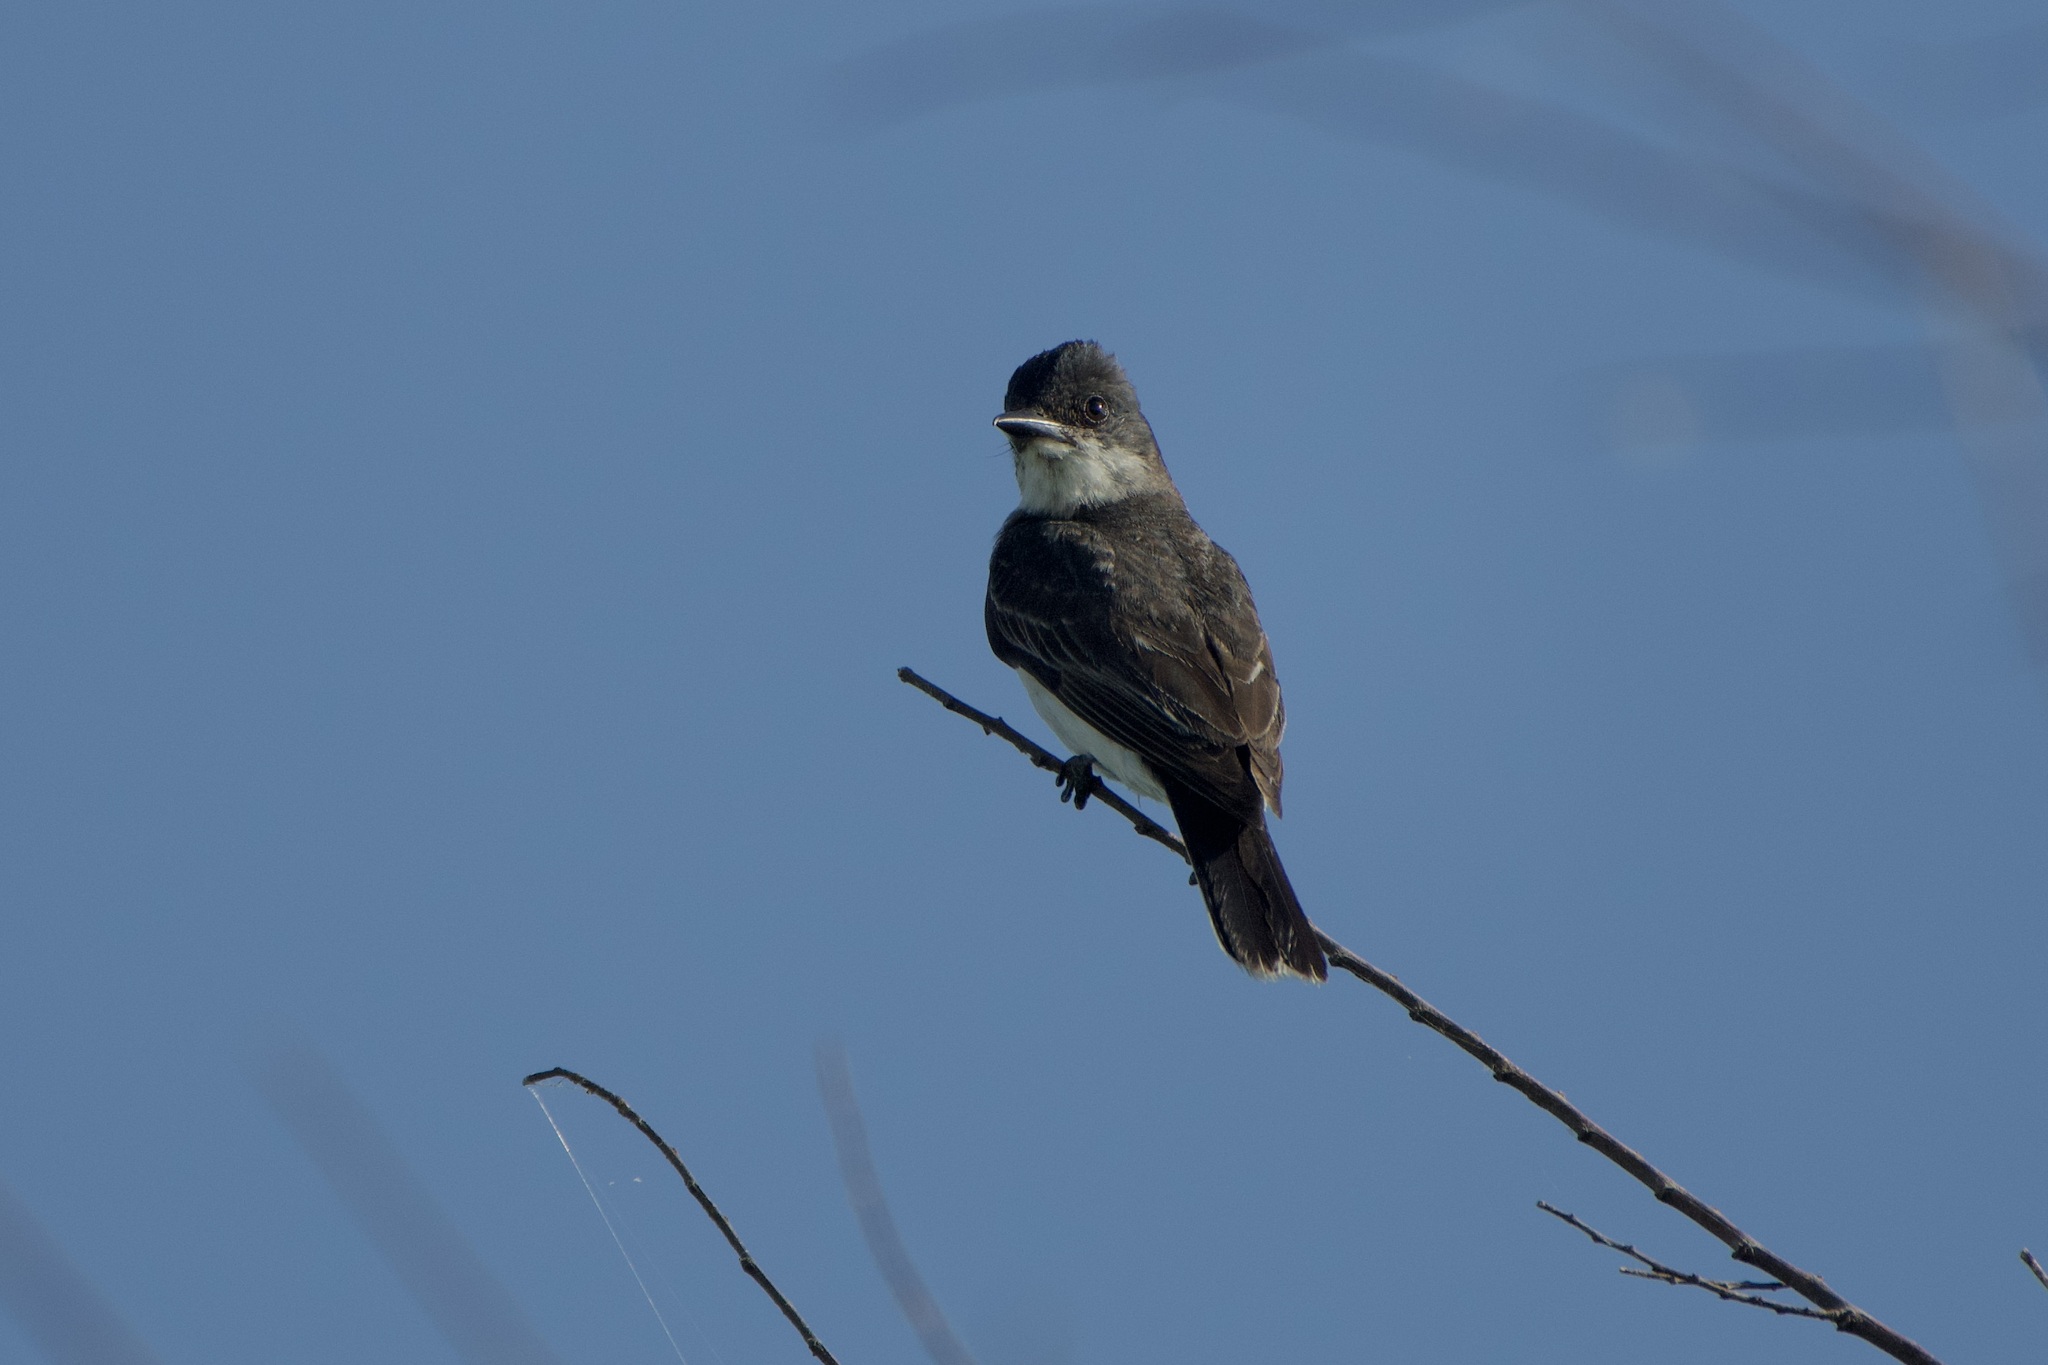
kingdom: Animalia
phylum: Chordata
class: Aves
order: Passeriformes
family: Tyrannidae
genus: Tyrannus
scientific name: Tyrannus tyrannus
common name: Eastern kingbird
